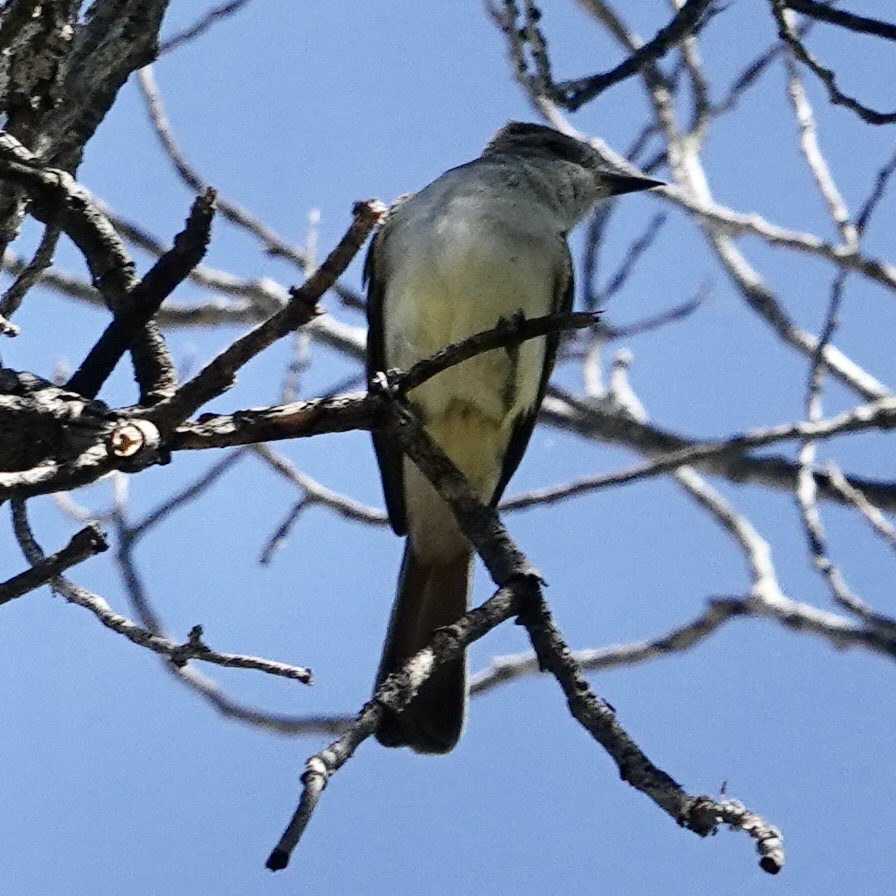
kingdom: Animalia
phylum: Chordata
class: Aves
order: Passeriformes
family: Tyrannidae
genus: Myiarchus
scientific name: Myiarchus cinerascens
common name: Ash-throated flycatcher
